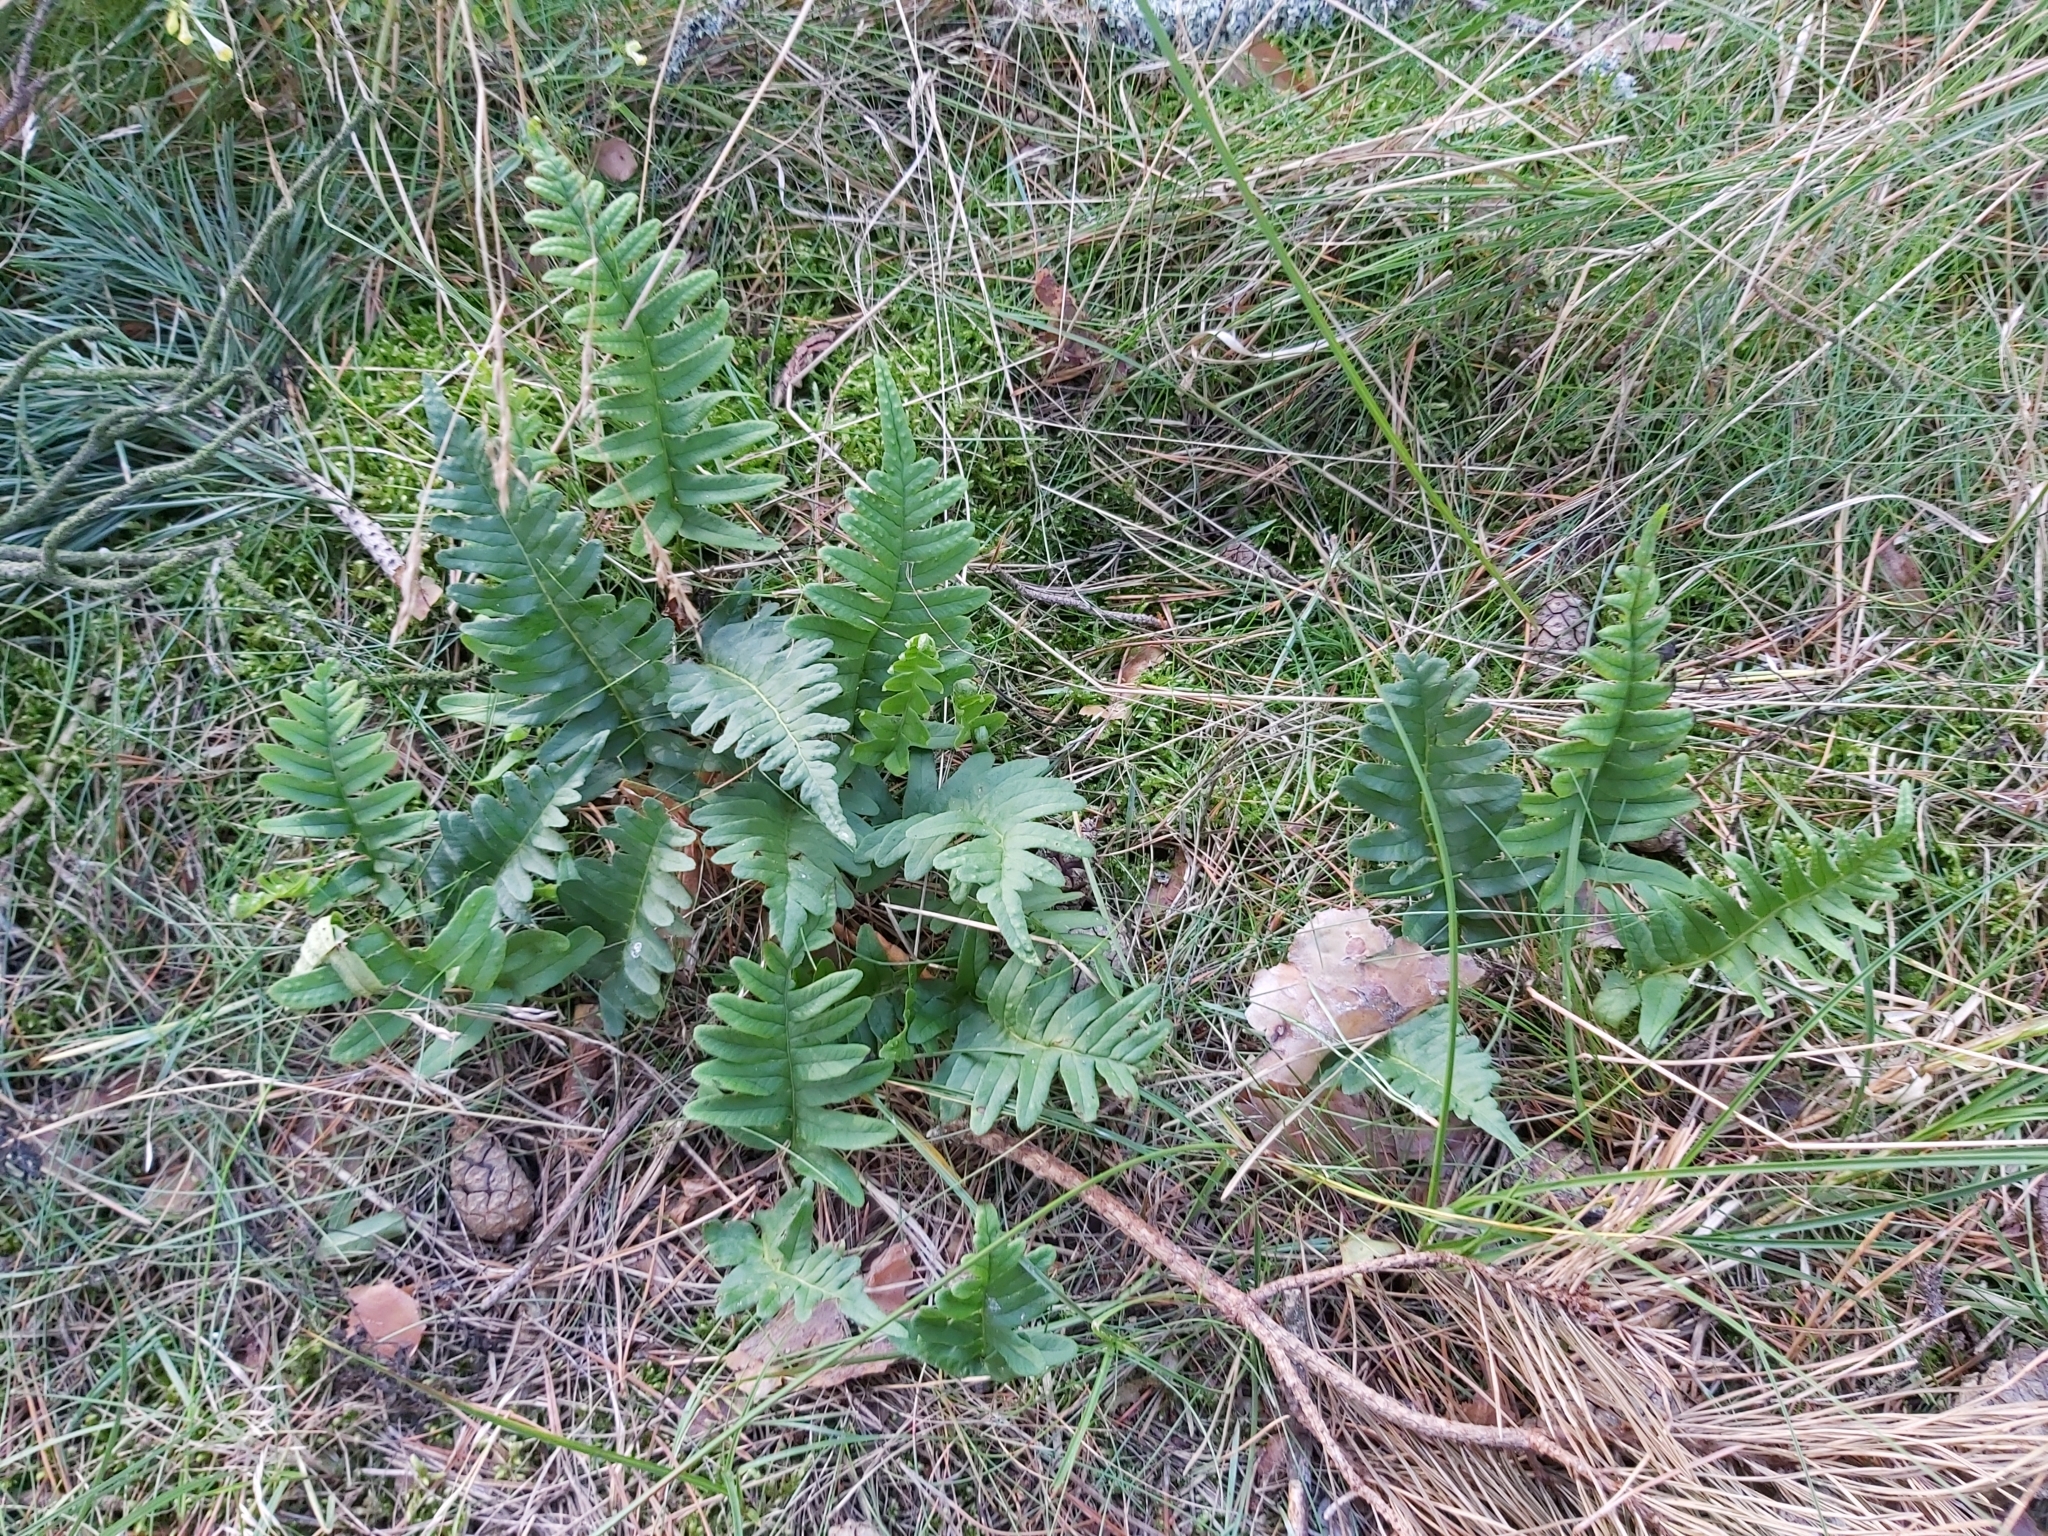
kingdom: Plantae
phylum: Tracheophyta
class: Polypodiopsida
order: Polypodiales
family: Polypodiaceae
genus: Polypodium
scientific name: Polypodium vulgare
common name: Common polypody
